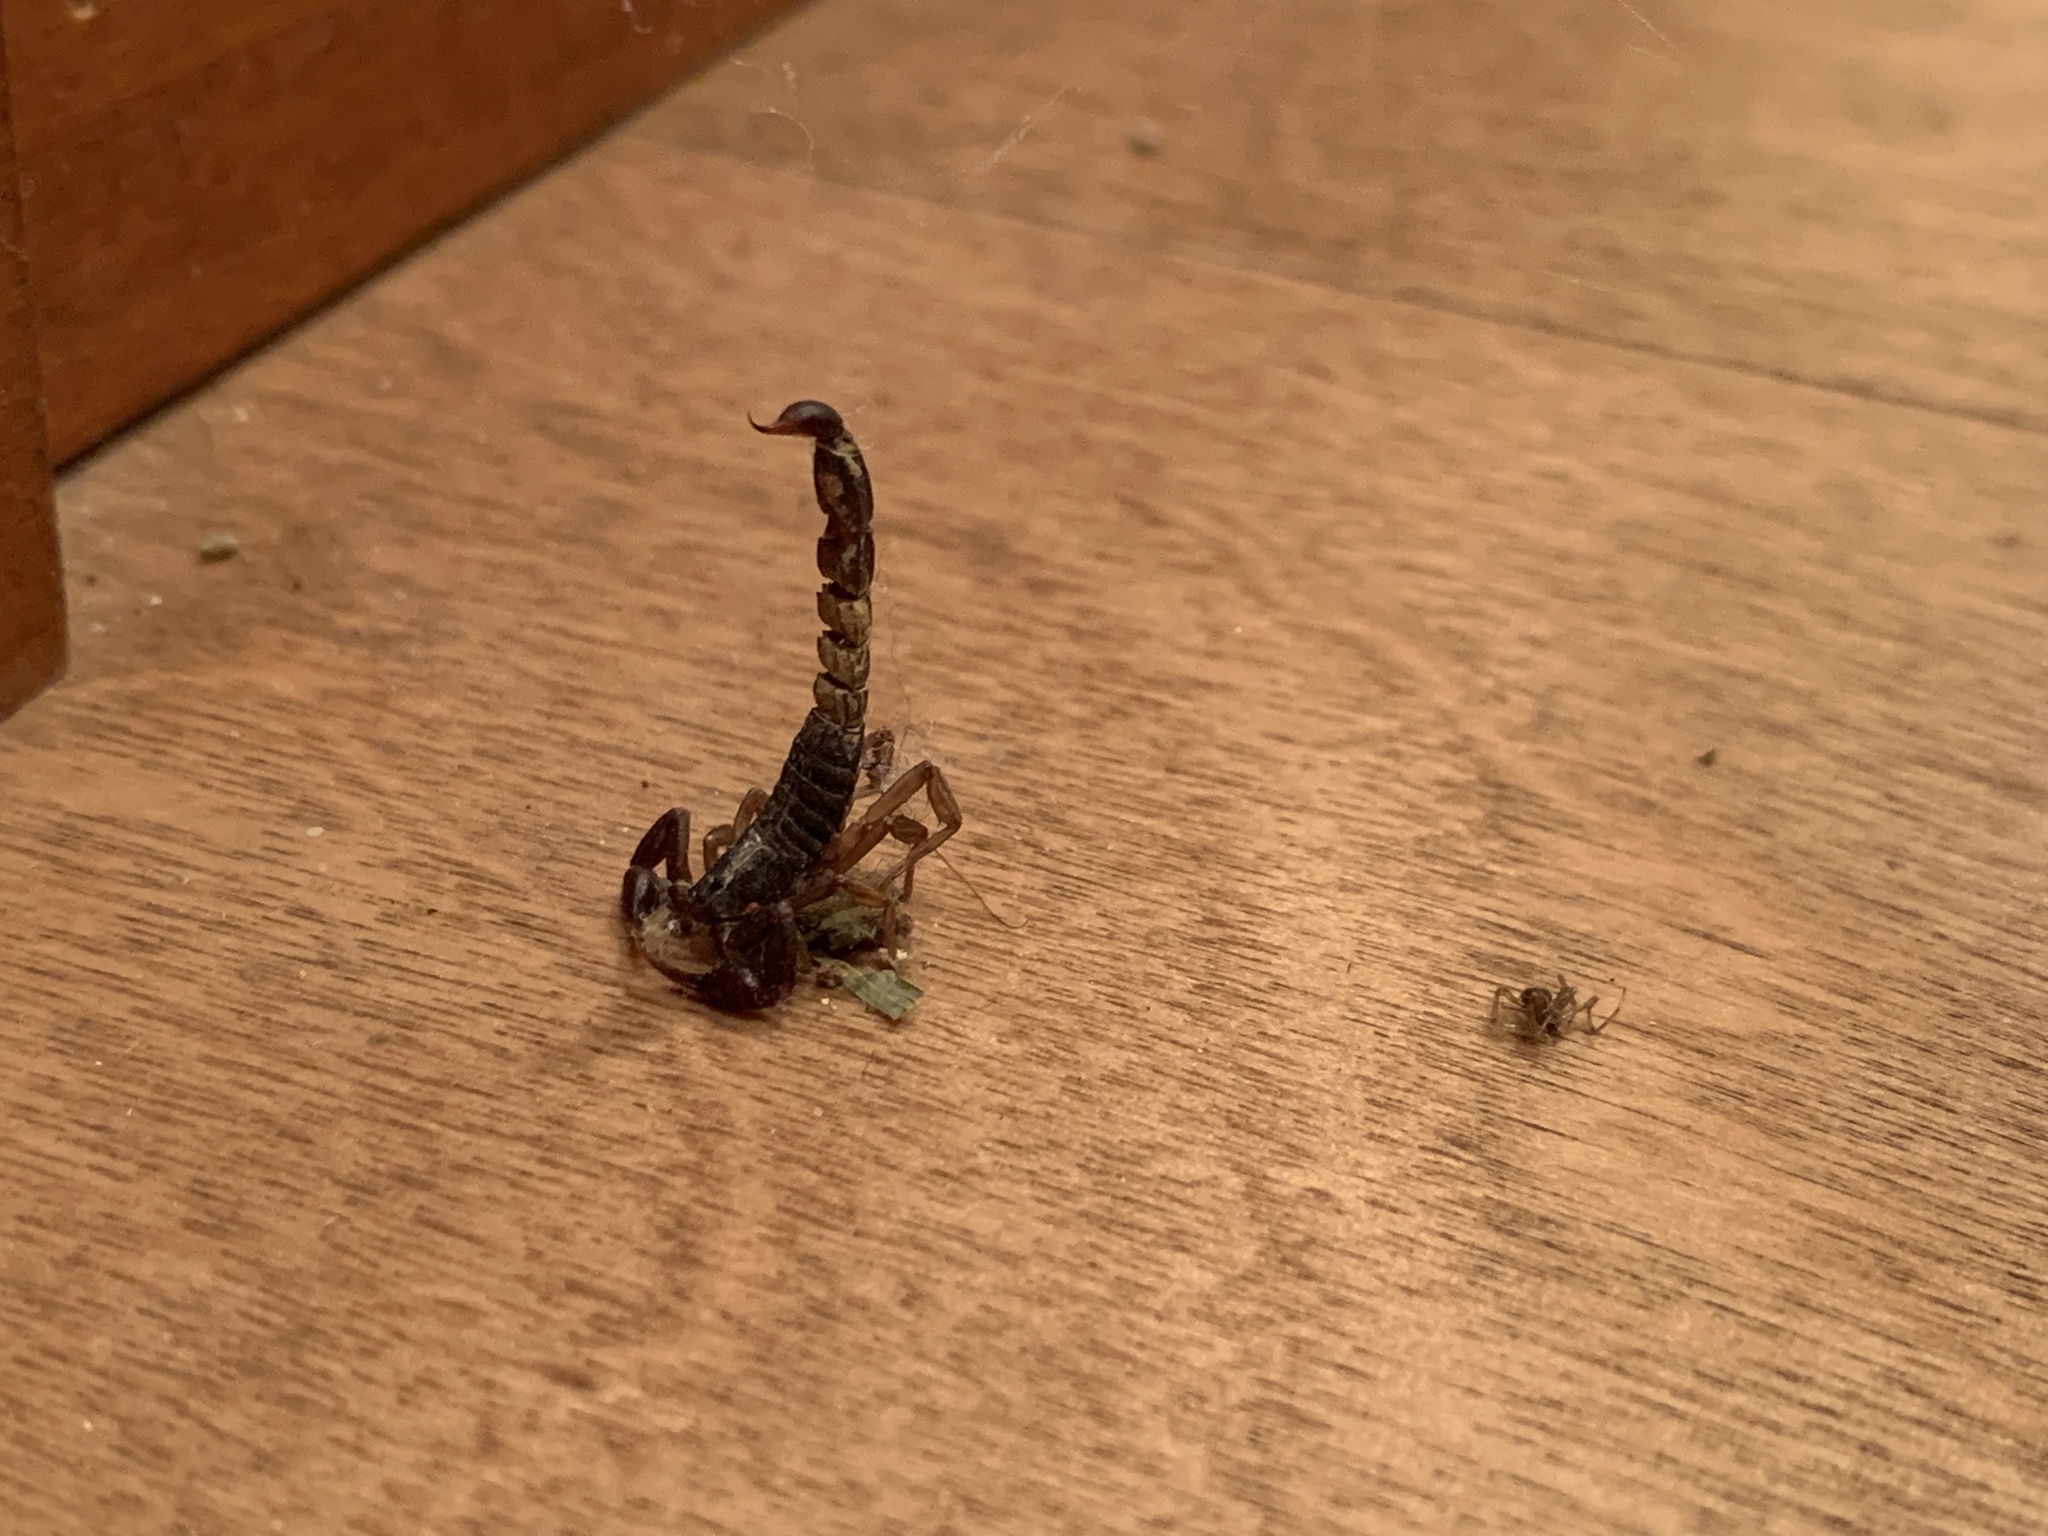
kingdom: Animalia
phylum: Arthropoda
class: Arachnida
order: Scorpiones
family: Vaejovidae
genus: Vaejovis
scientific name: Vaejovis carolinianus
